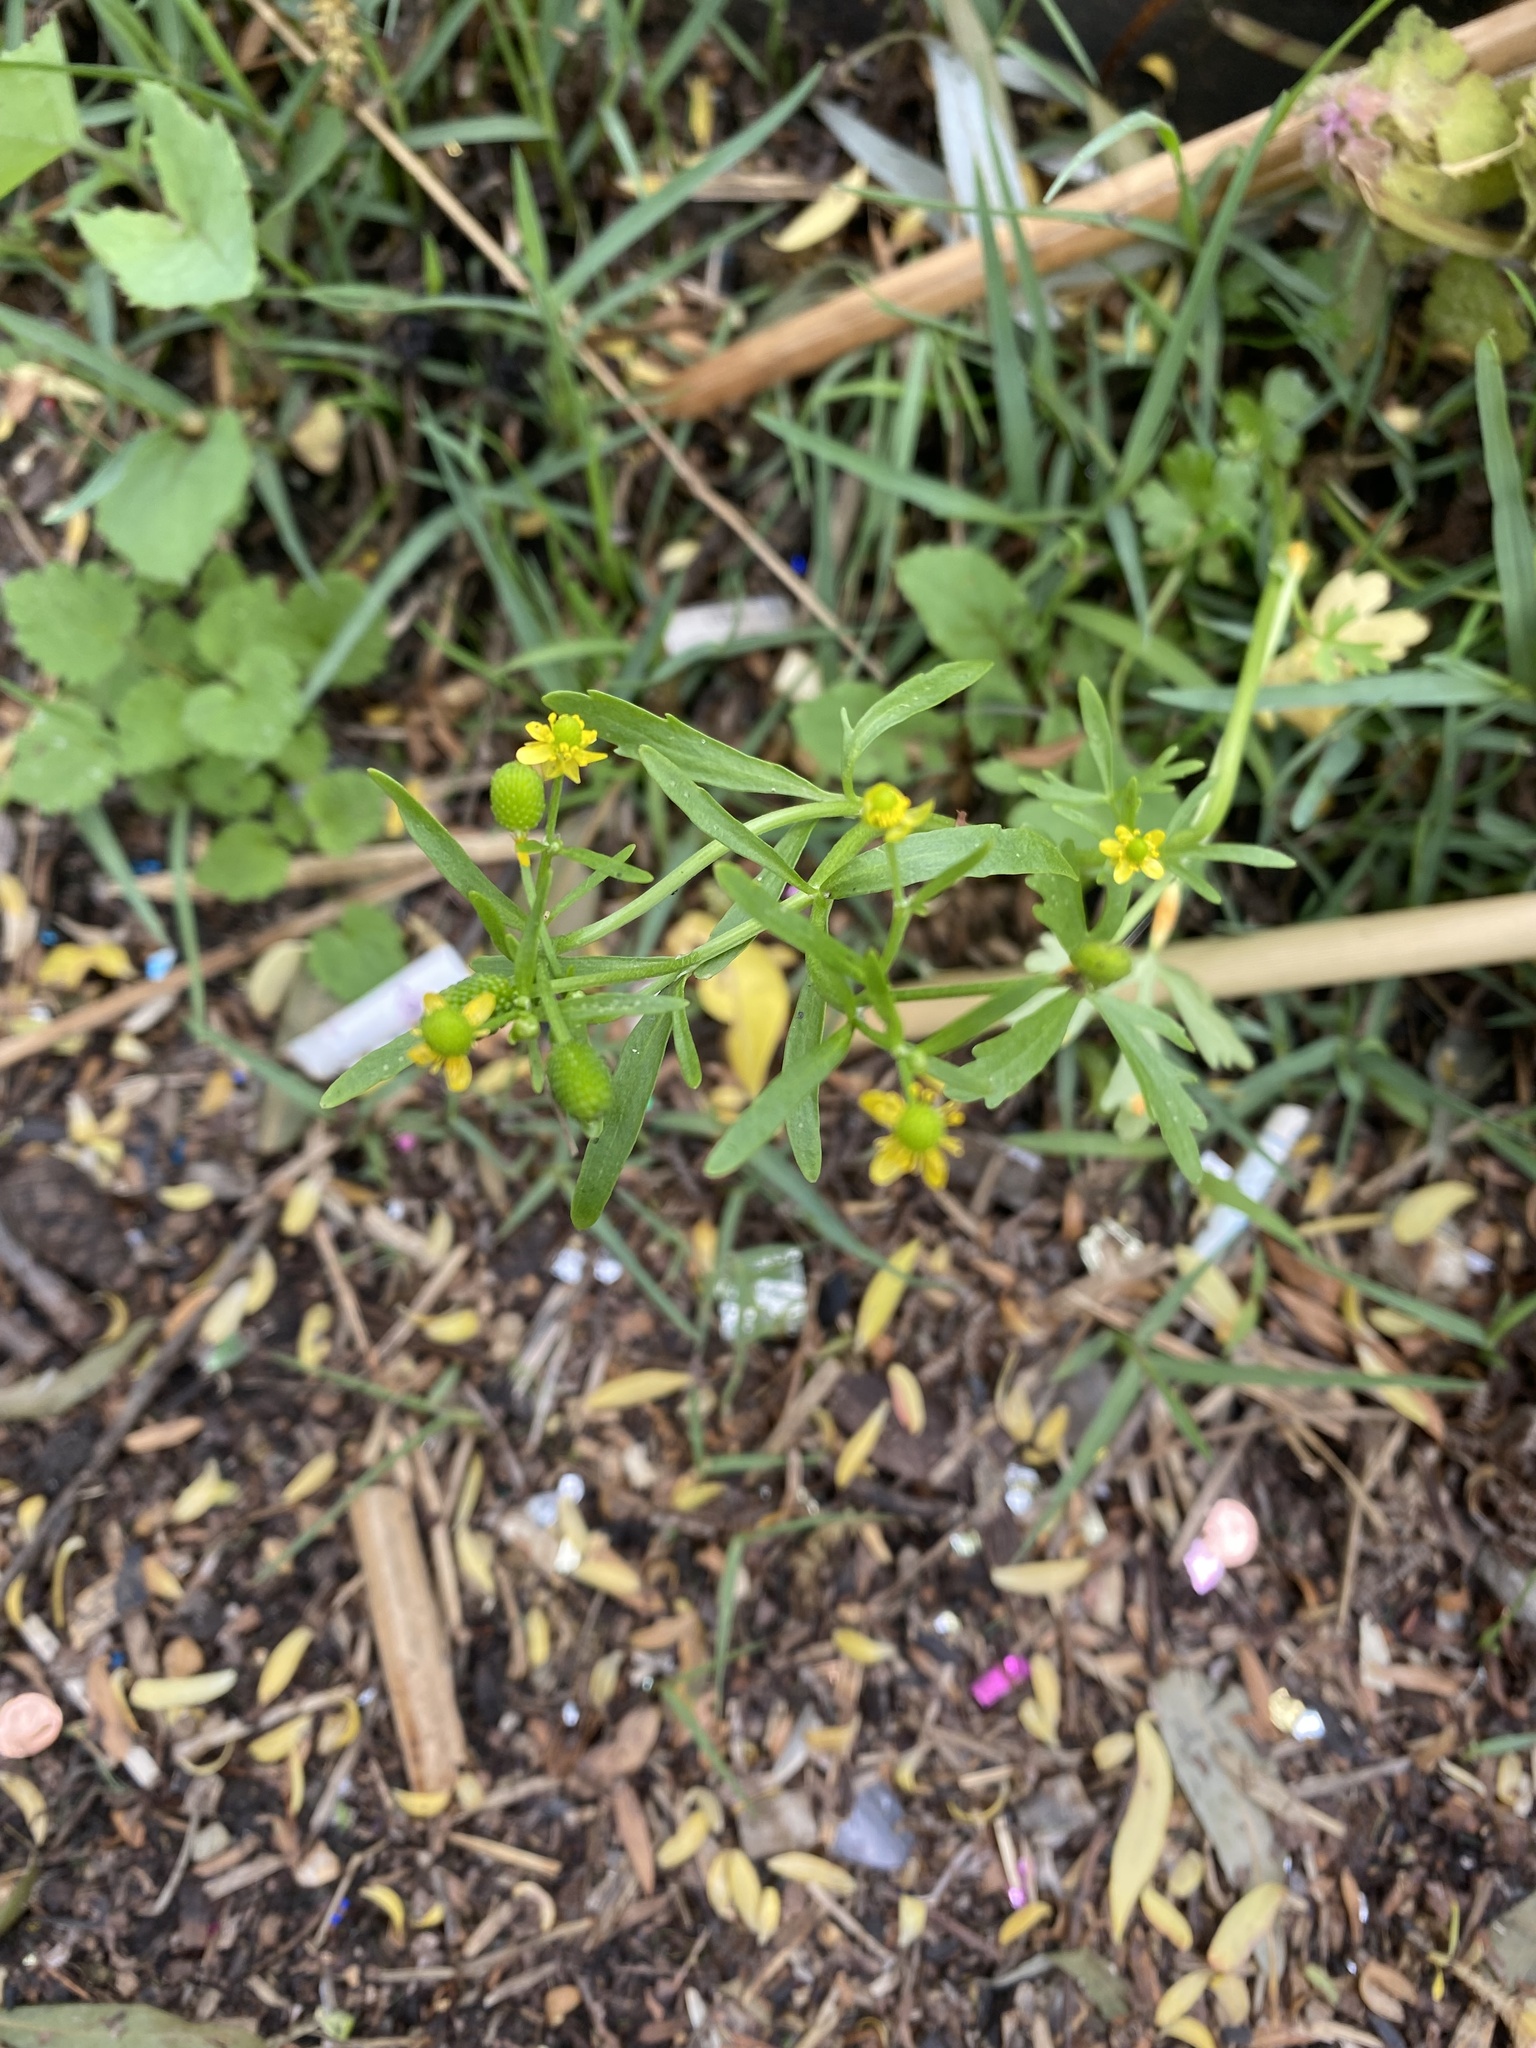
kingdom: Plantae
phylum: Tracheophyta
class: Magnoliopsida
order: Ranunculales
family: Ranunculaceae
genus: Ranunculus
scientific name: Ranunculus sceleratus
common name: Celery-leaved buttercup
